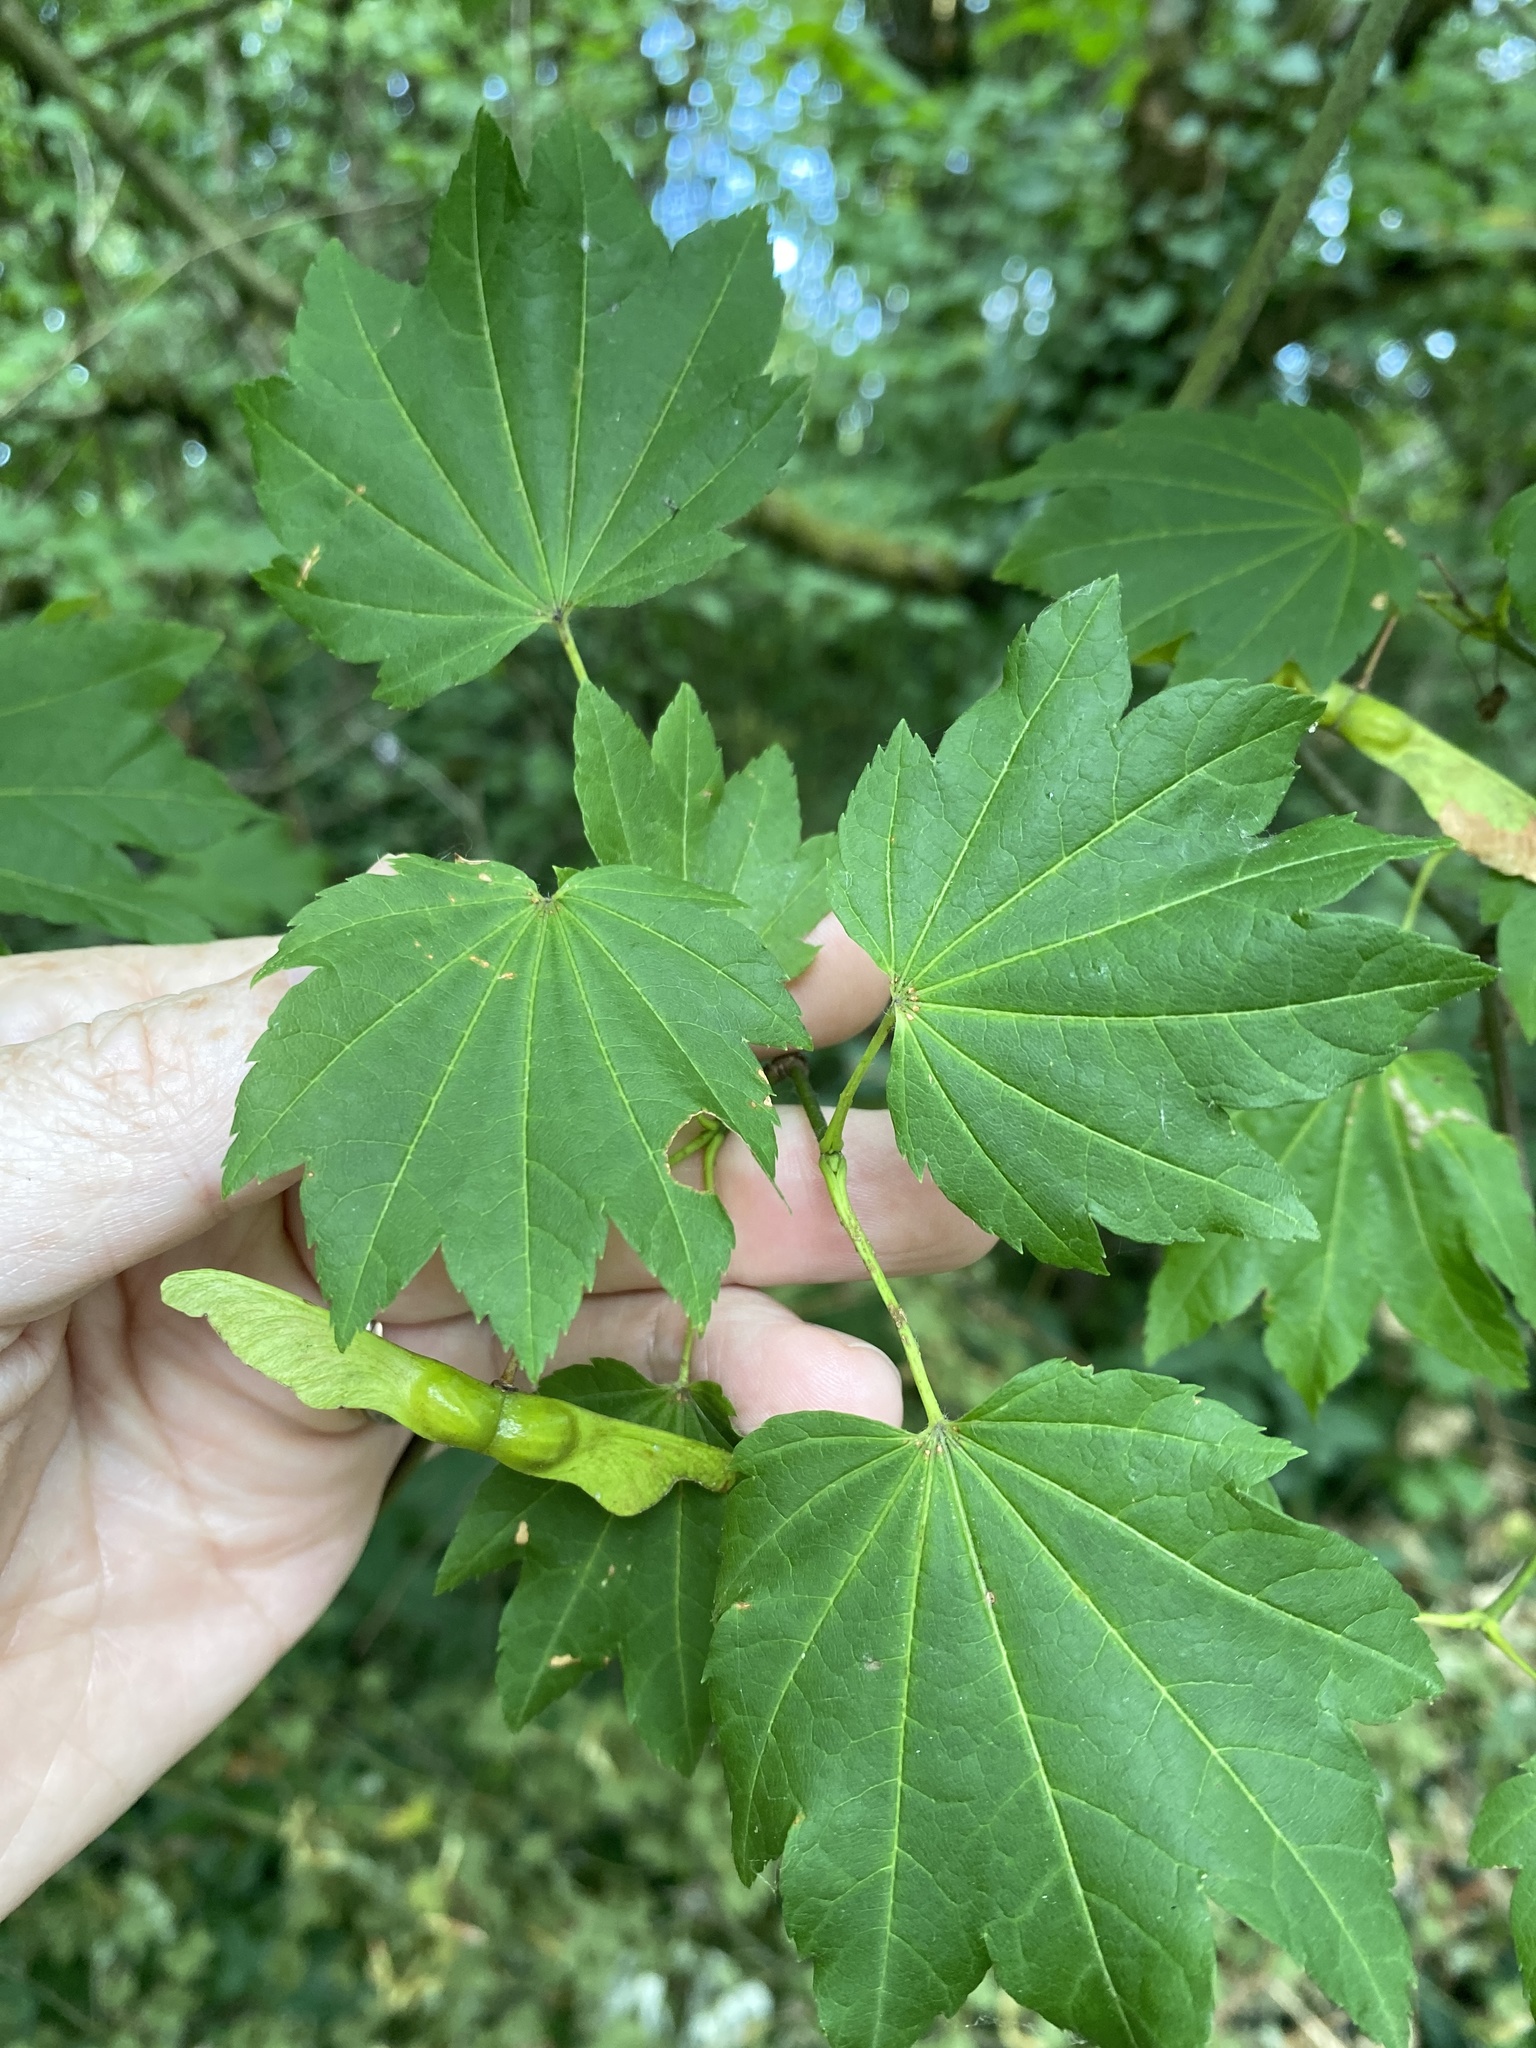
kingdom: Plantae
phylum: Tracheophyta
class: Magnoliopsida
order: Sapindales
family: Sapindaceae
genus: Acer
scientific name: Acer circinatum
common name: Vine maple
